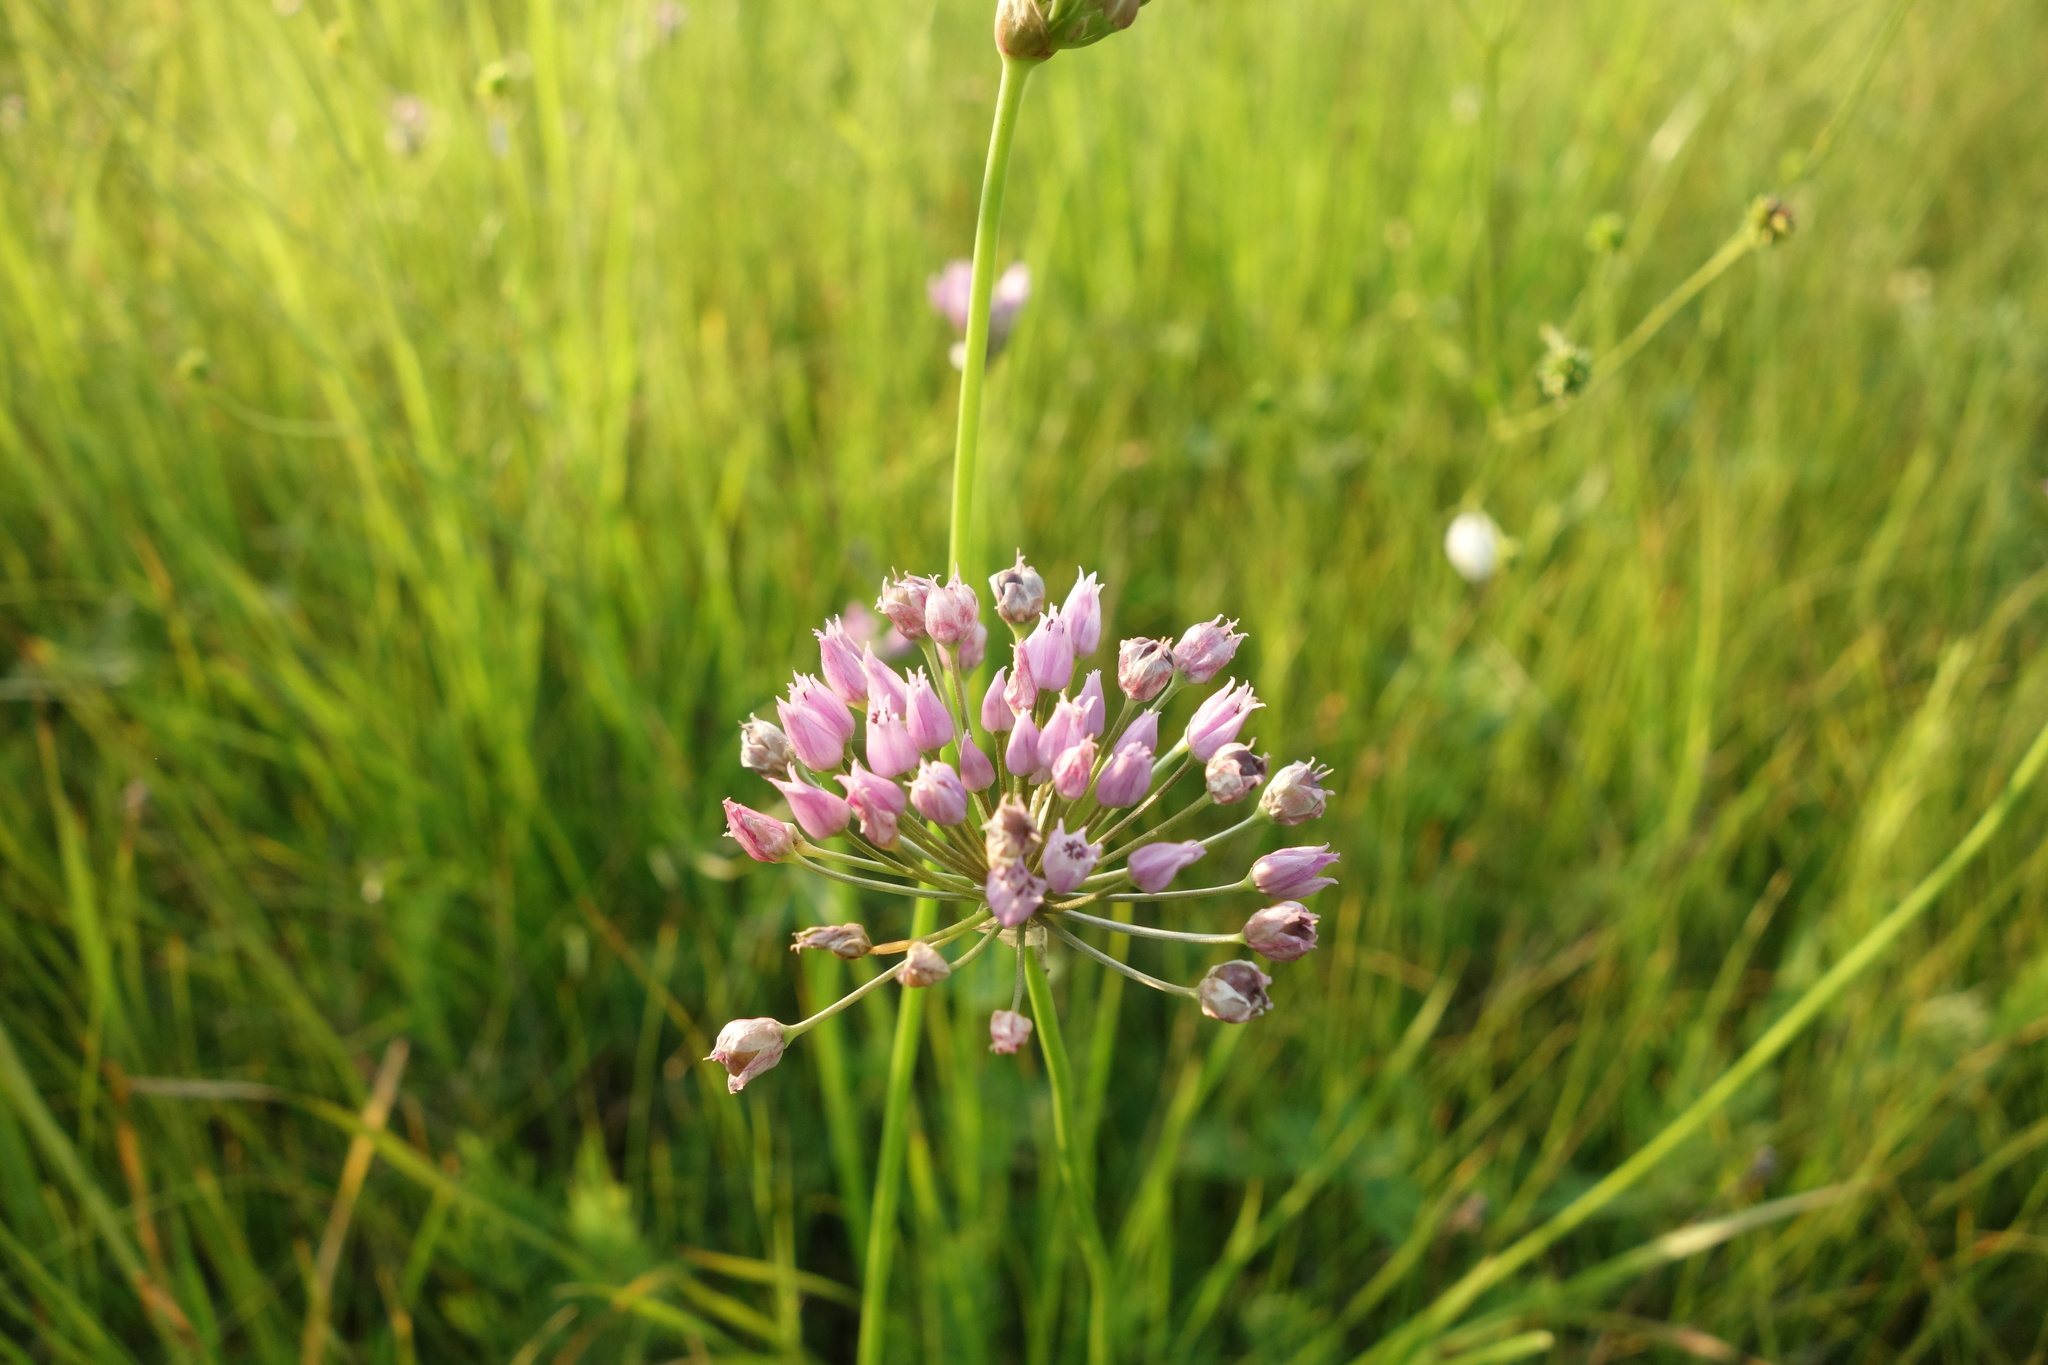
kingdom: Plantae
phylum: Tracheophyta
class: Liliopsida
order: Asparagales
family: Amaryllidaceae
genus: Allium
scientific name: Allium angulosum
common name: Mouse garlic
